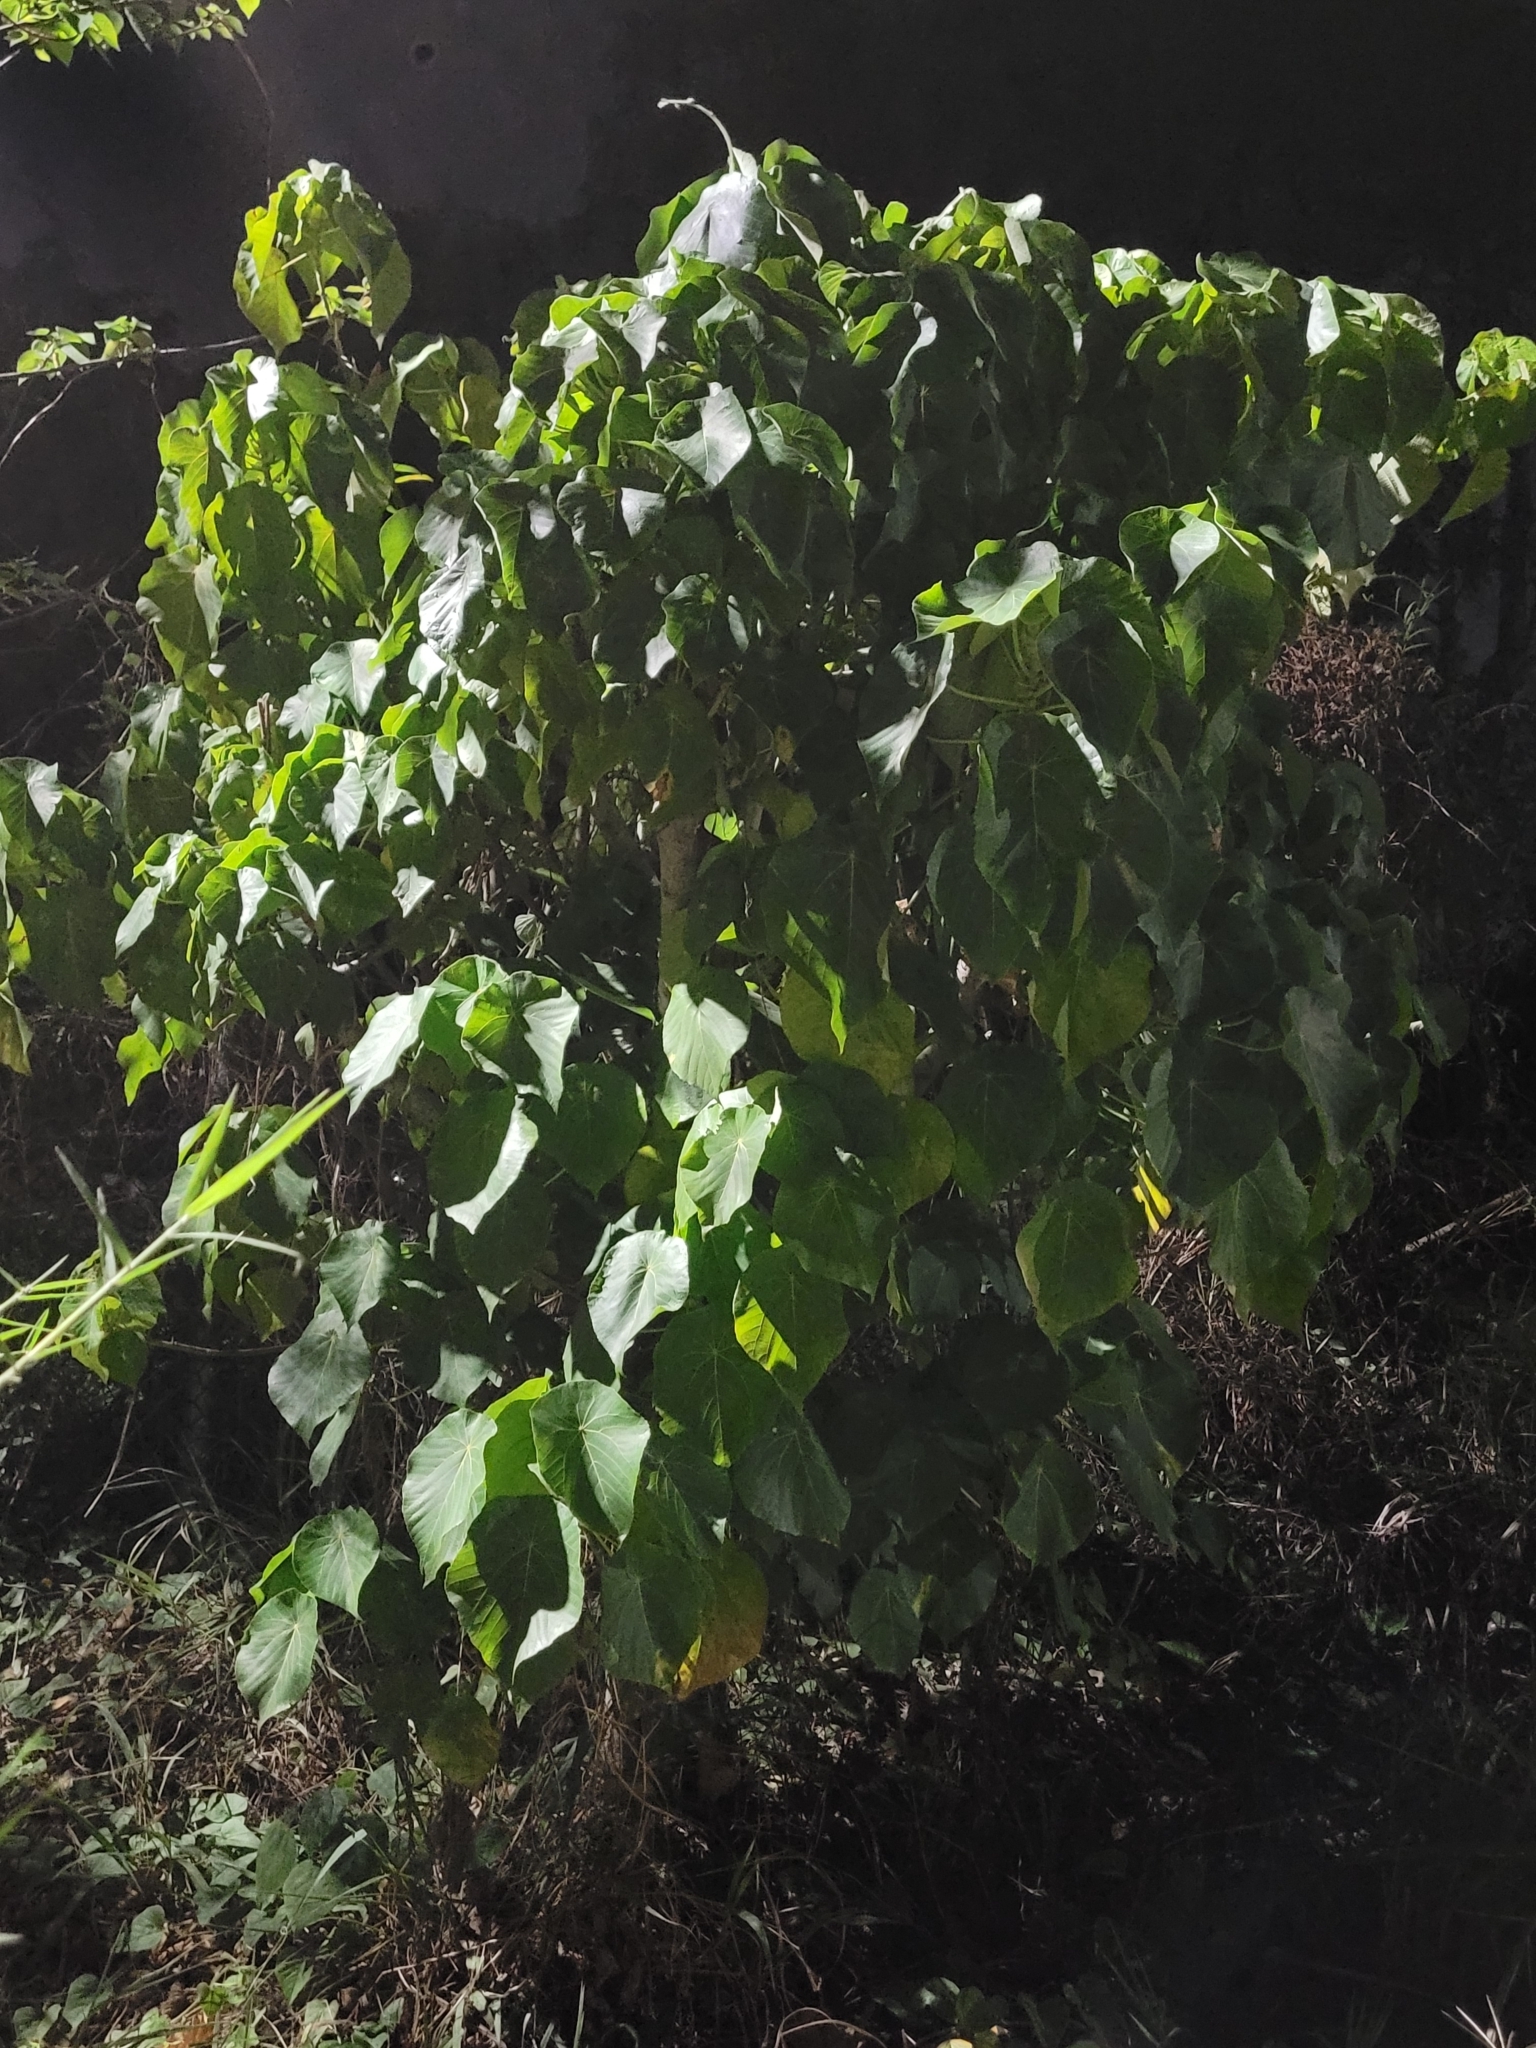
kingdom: Plantae
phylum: Tracheophyta
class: Magnoliopsida
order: Malpighiales
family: Euphorbiaceae
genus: Macaranga
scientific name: Macaranga tanarius
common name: Parasol leaf tree
